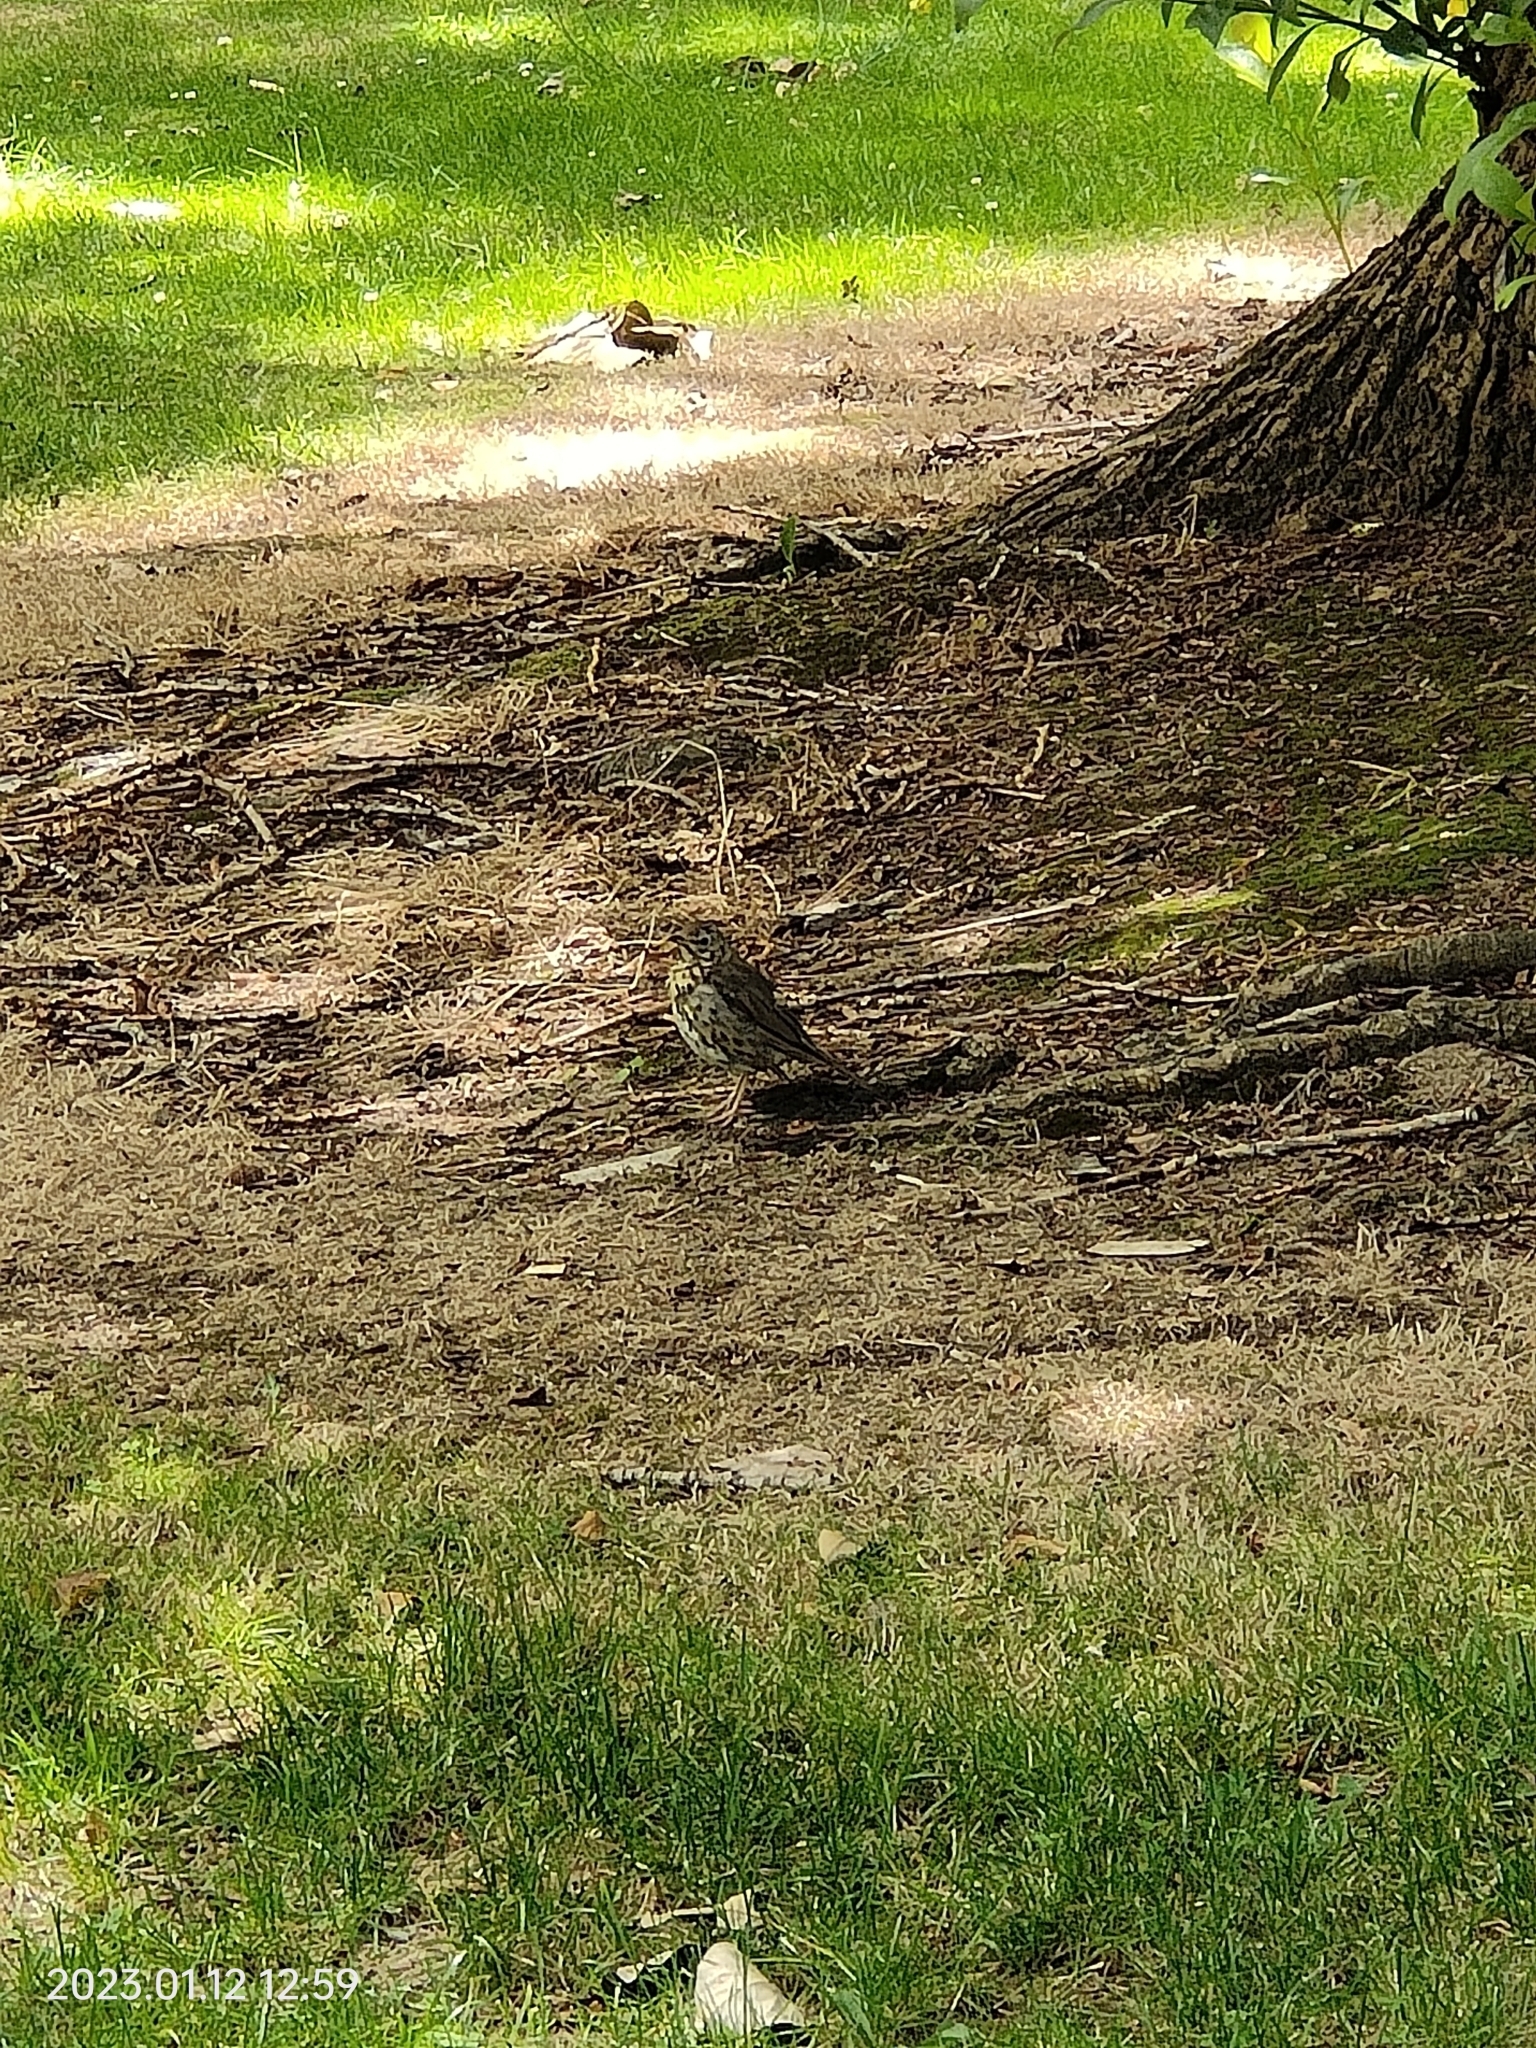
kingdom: Animalia
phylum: Chordata
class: Aves
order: Passeriformes
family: Turdidae
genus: Turdus
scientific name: Turdus philomelos
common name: Song thrush
